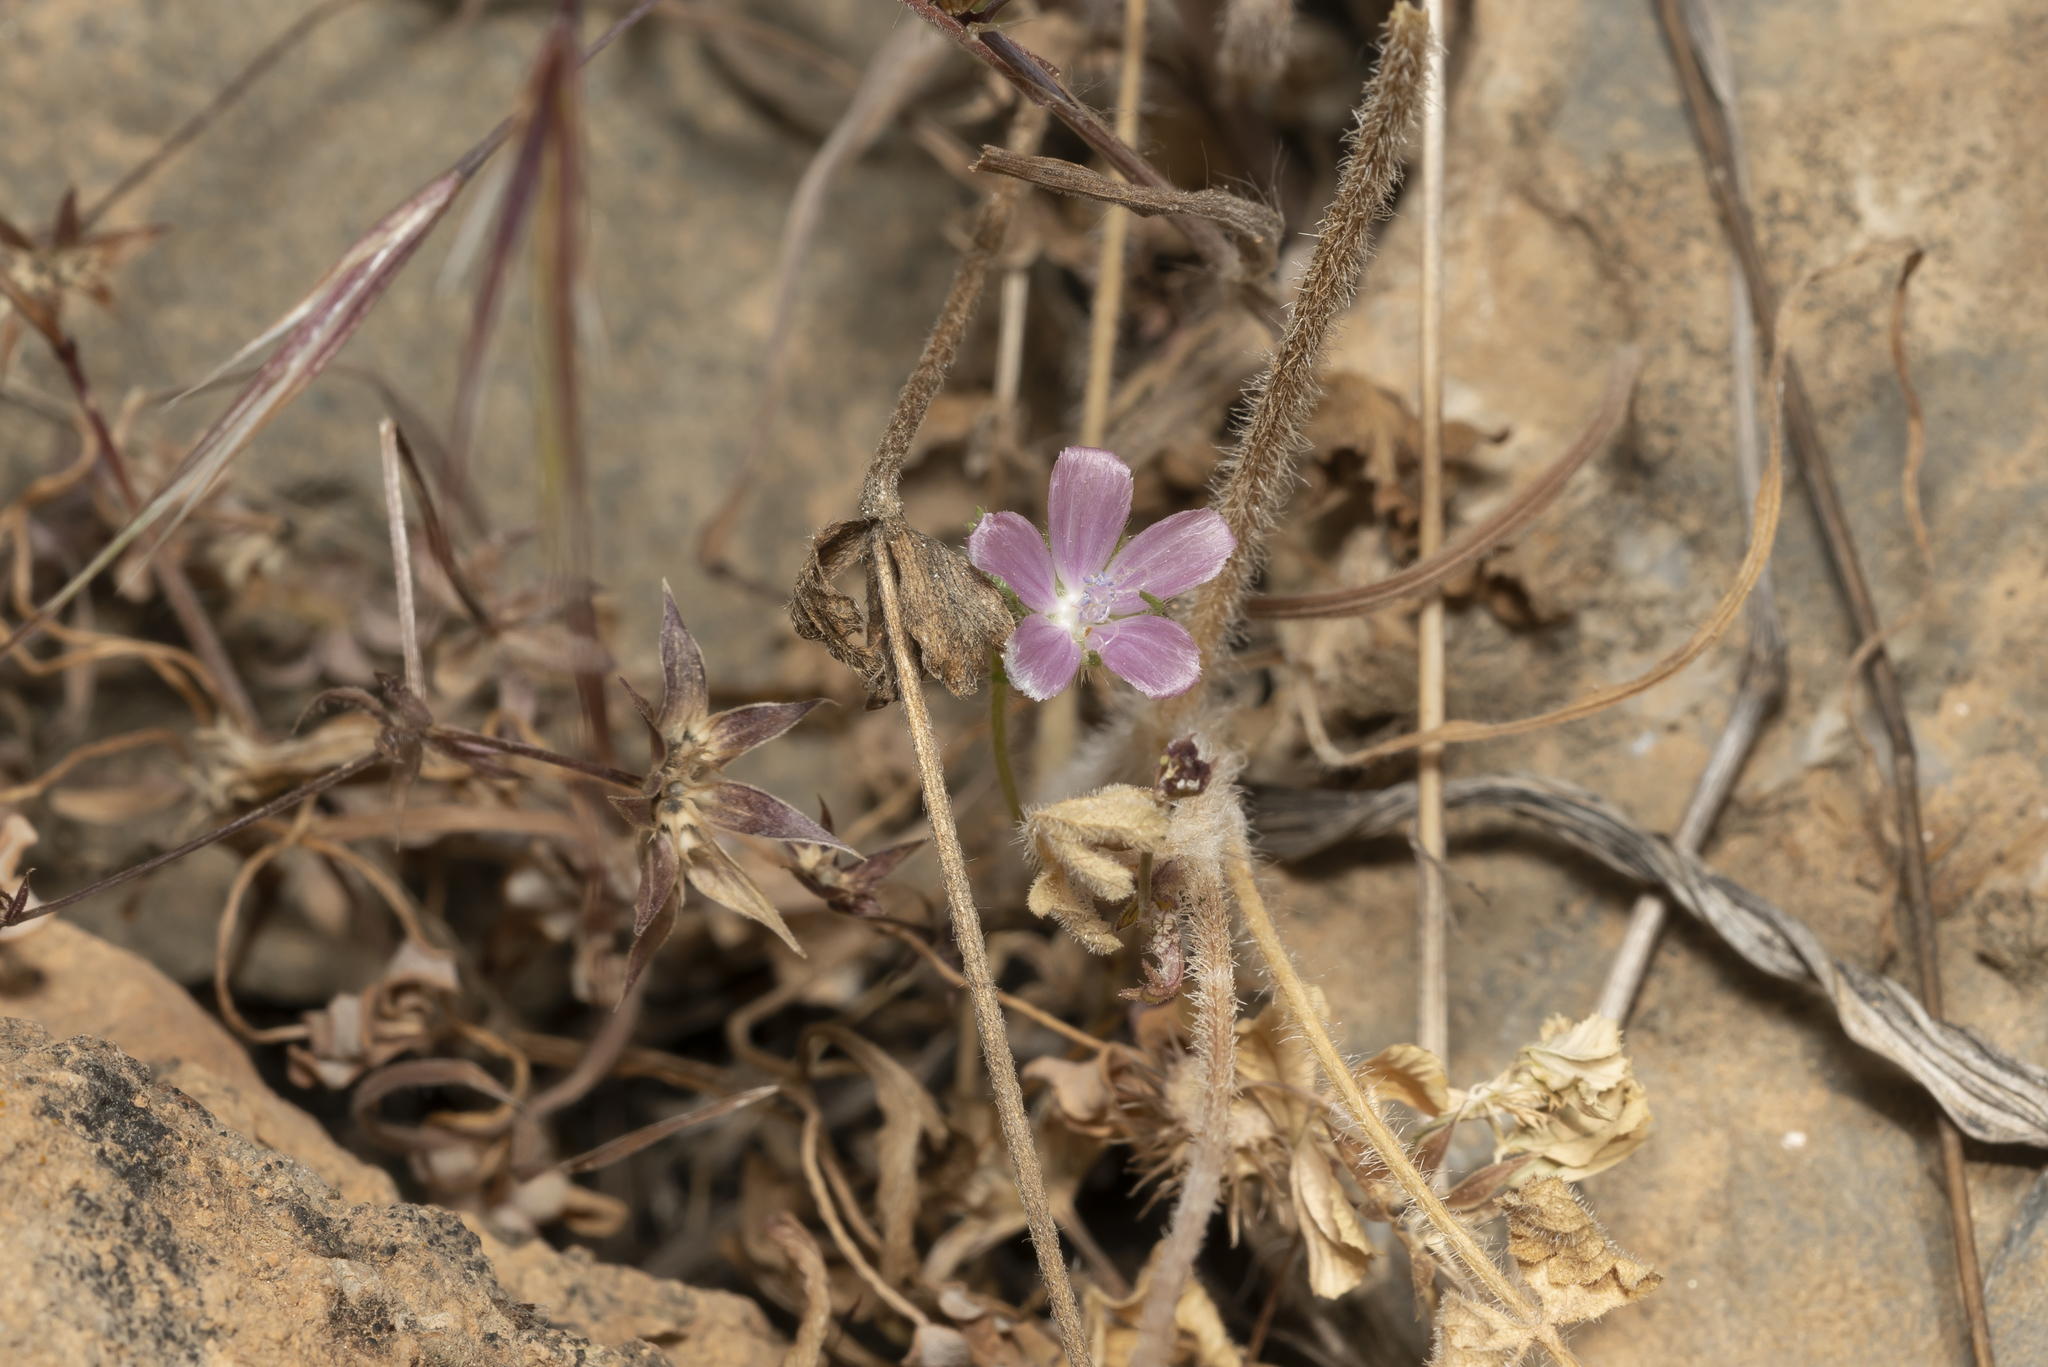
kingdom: Plantae
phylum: Tracheophyta
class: Magnoliopsida
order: Malvales
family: Malvaceae
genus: Malva
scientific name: Malva cretica
